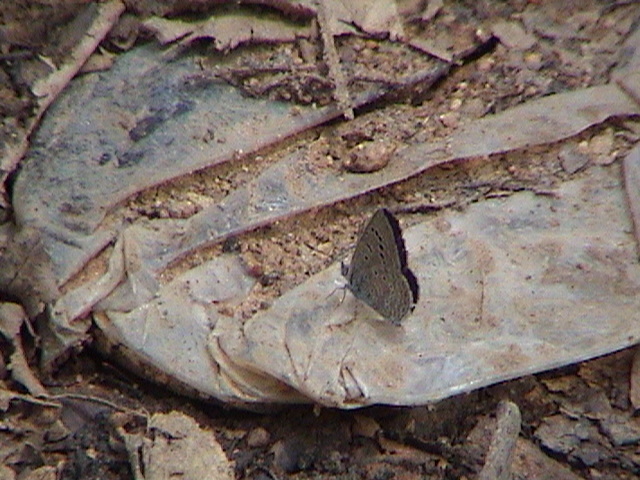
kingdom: Animalia
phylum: Arthropoda
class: Insecta
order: Lepidoptera
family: Lycaenidae
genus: Zizeeria
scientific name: Zizeeria karsandra
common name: Dark grass blue
